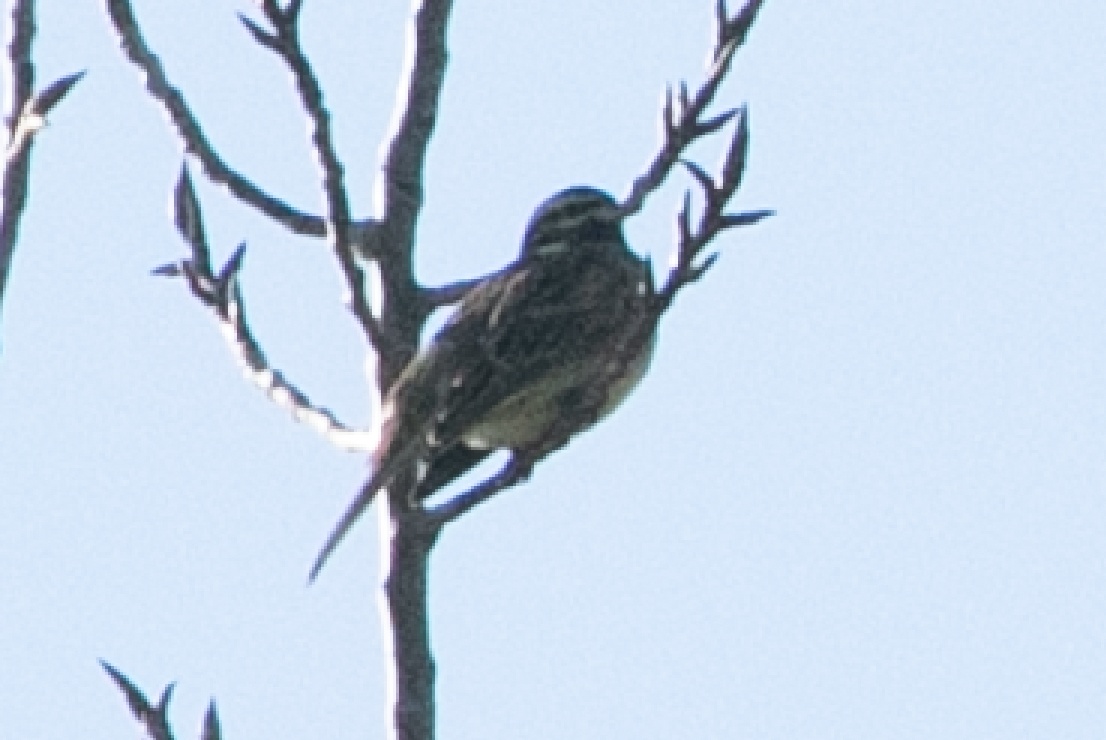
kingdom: Animalia
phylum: Chordata
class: Aves
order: Passeriformes
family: Emberizidae
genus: Emberiza
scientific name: Emberiza cirlus
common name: Cirl bunting
